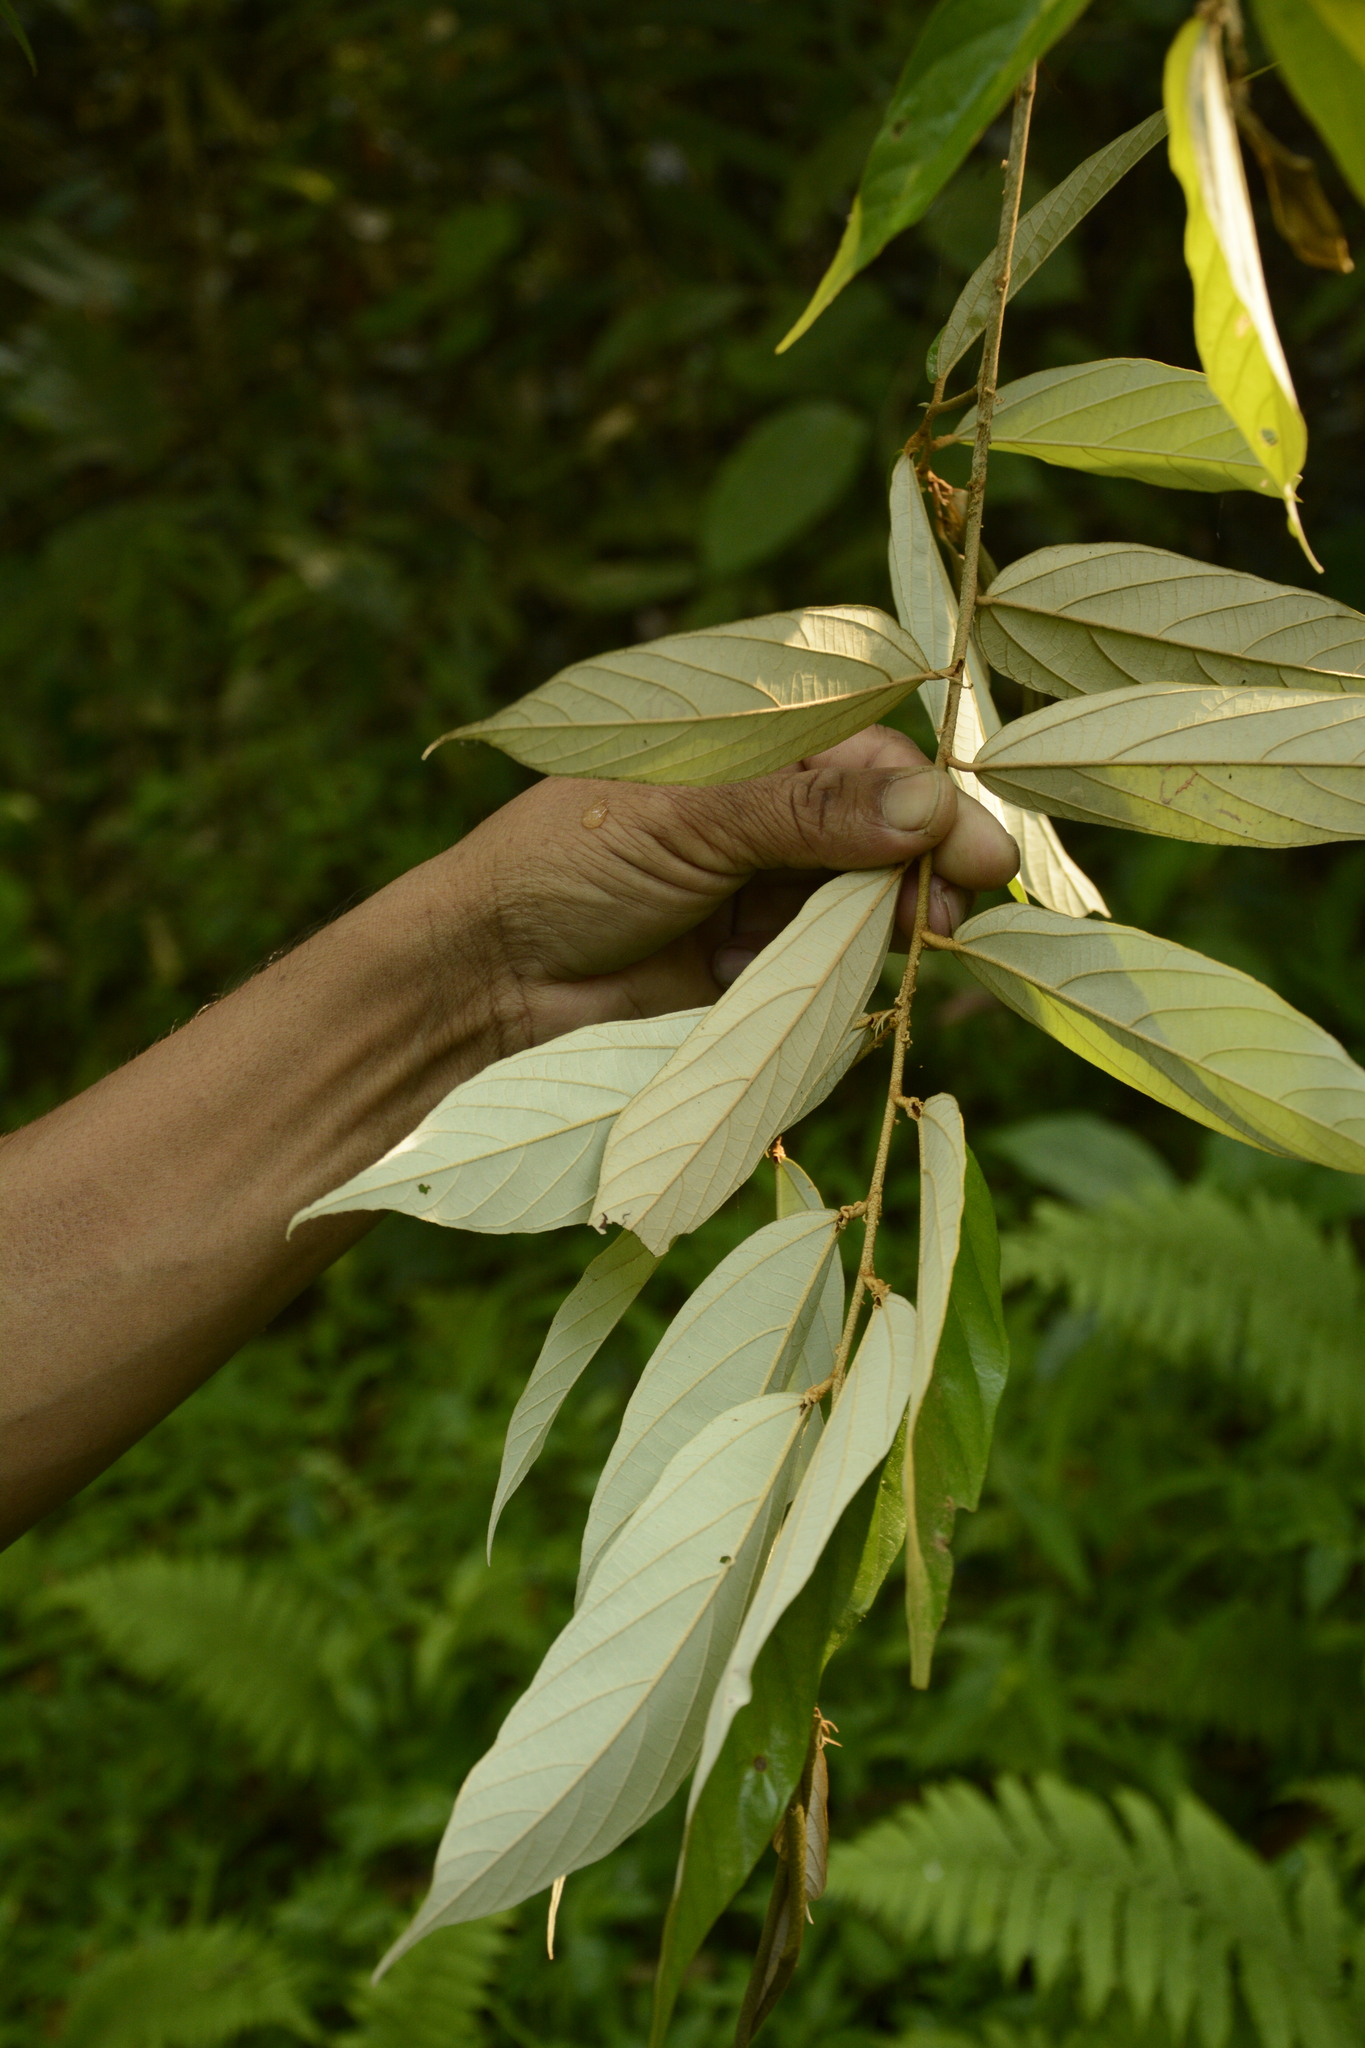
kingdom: Plantae
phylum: Tracheophyta
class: Magnoliopsida
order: Malvales
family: Malvaceae
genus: Pterospermum
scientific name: Pterospermum lanceifolium
